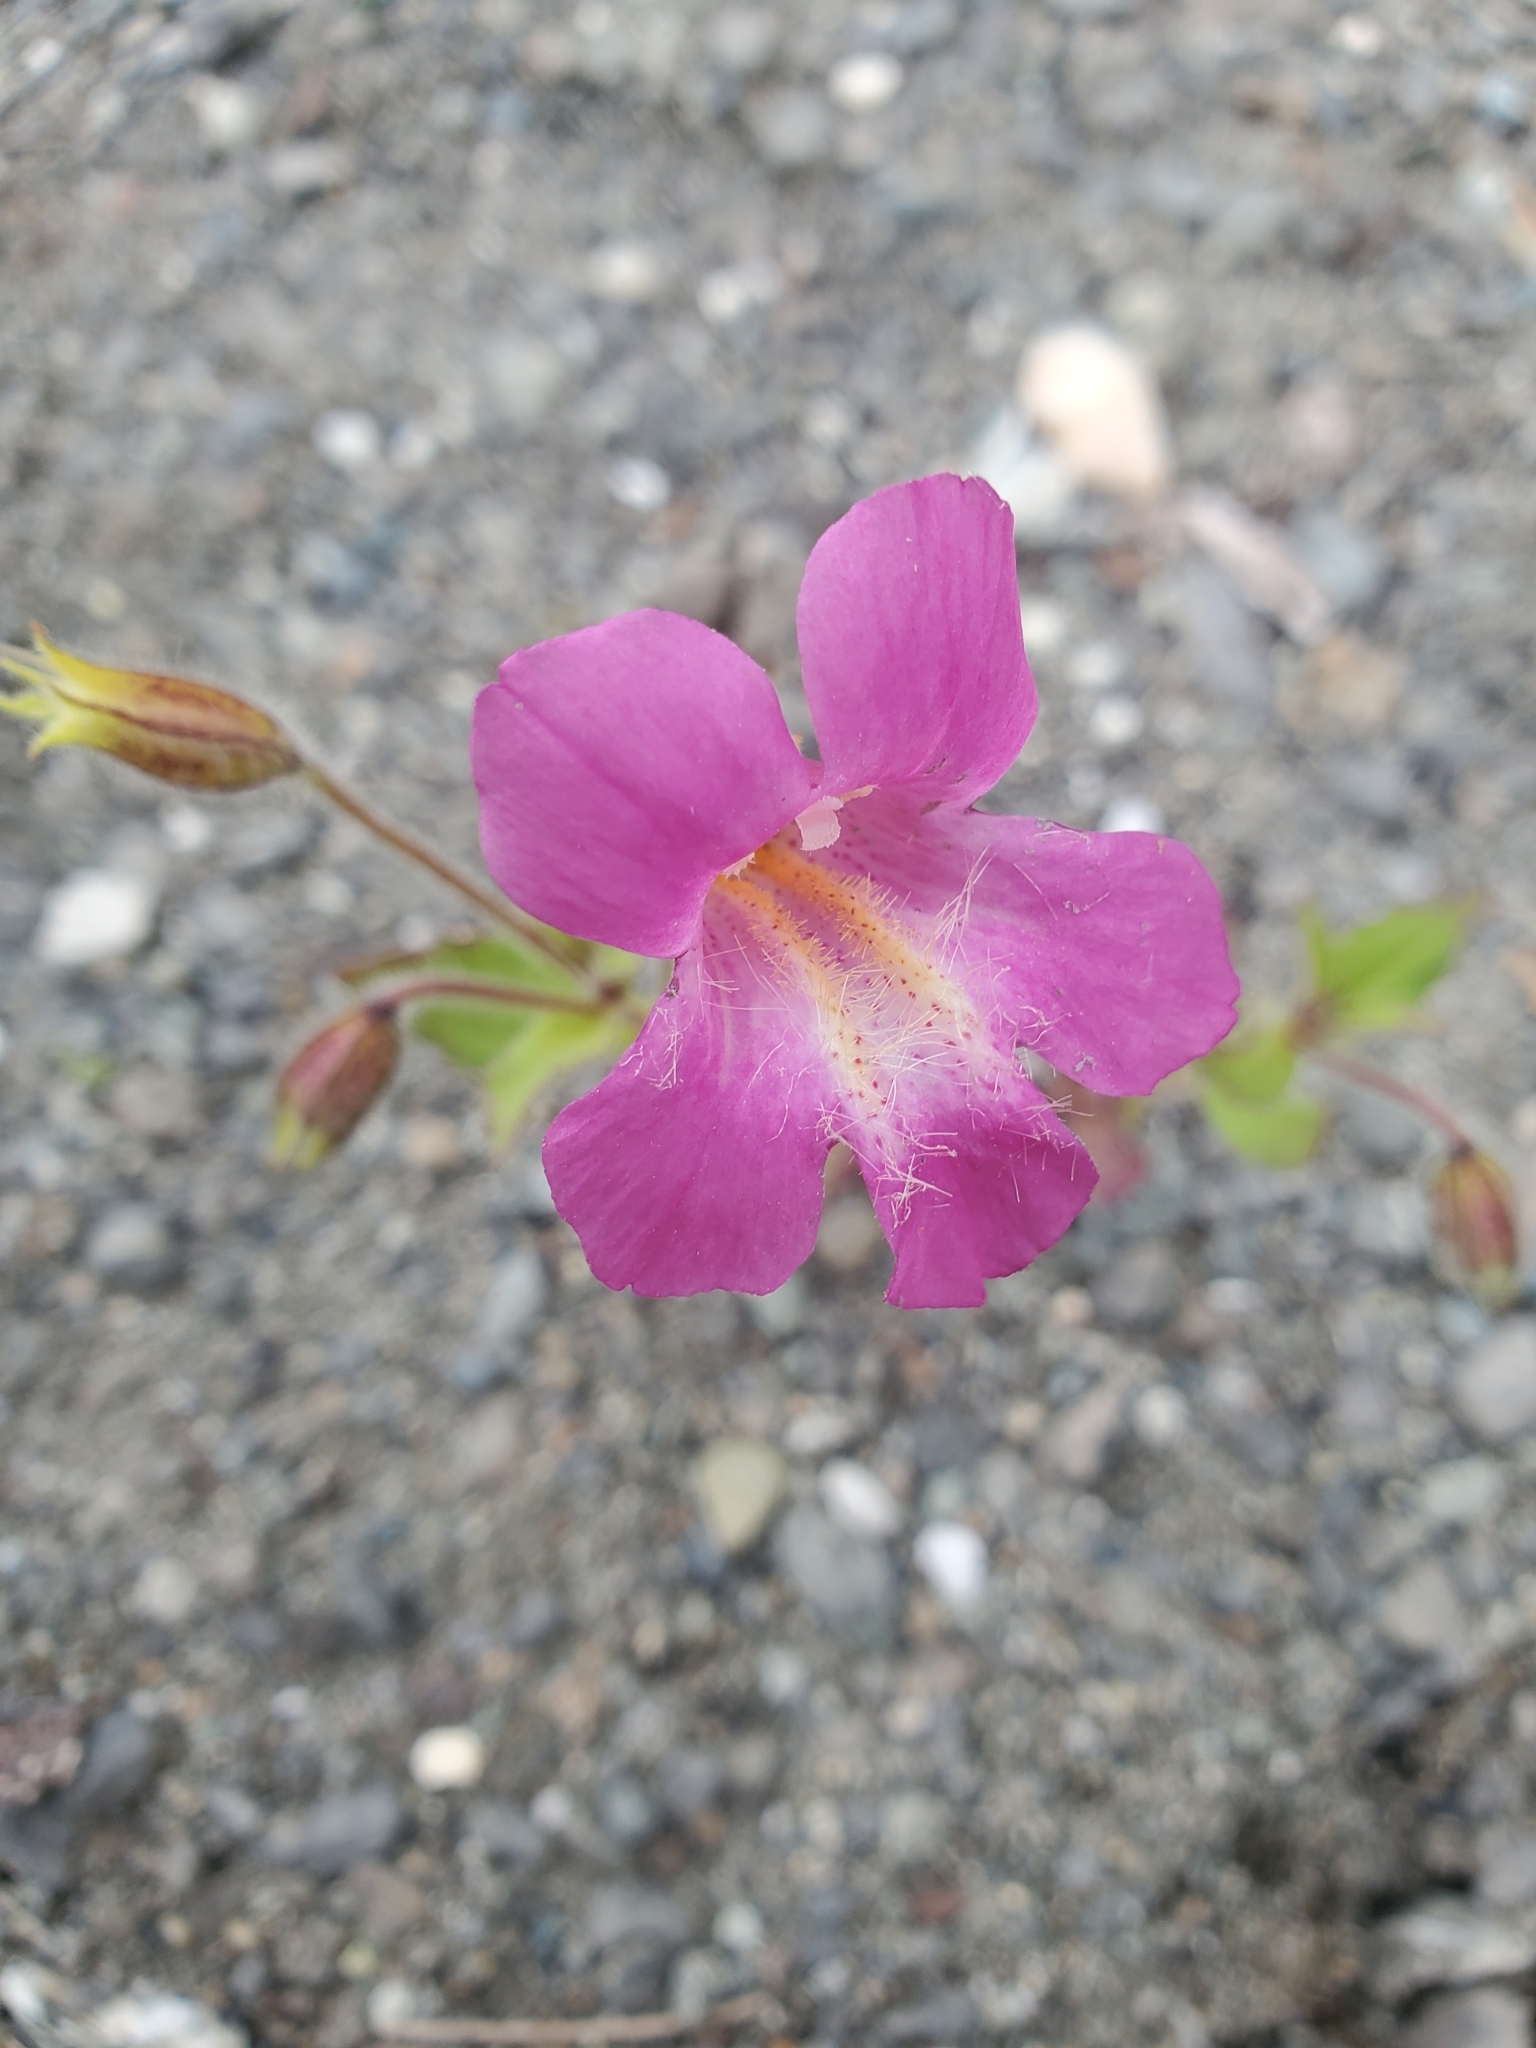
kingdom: Plantae
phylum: Tracheophyta
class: Magnoliopsida
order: Lamiales
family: Phrymaceae
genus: Erythranthe
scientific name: Erythranthe lewisii
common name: Lewis's monkey-flower
